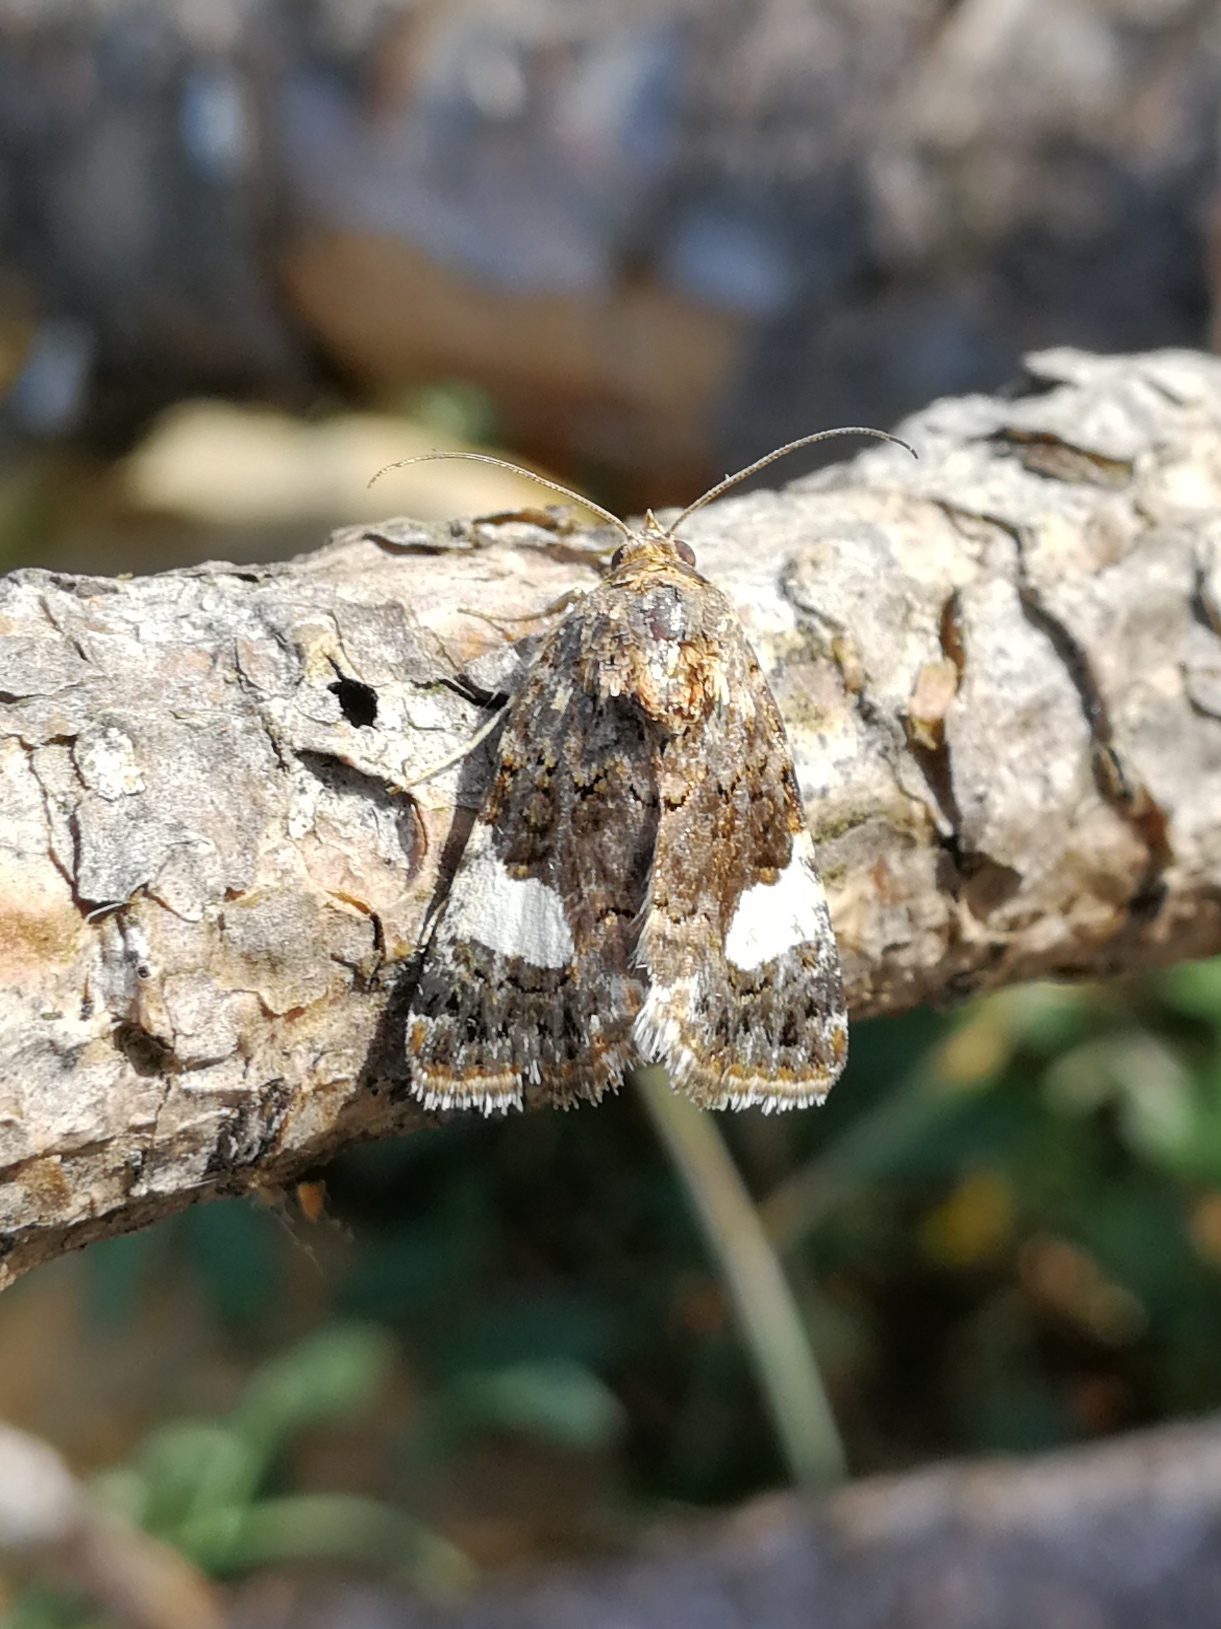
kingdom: Animalia
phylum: Arthropoda
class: Insecta
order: Lepidoptera
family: Erebidae
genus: Tyta
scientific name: Tyta luctuosa
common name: Four-spotted
